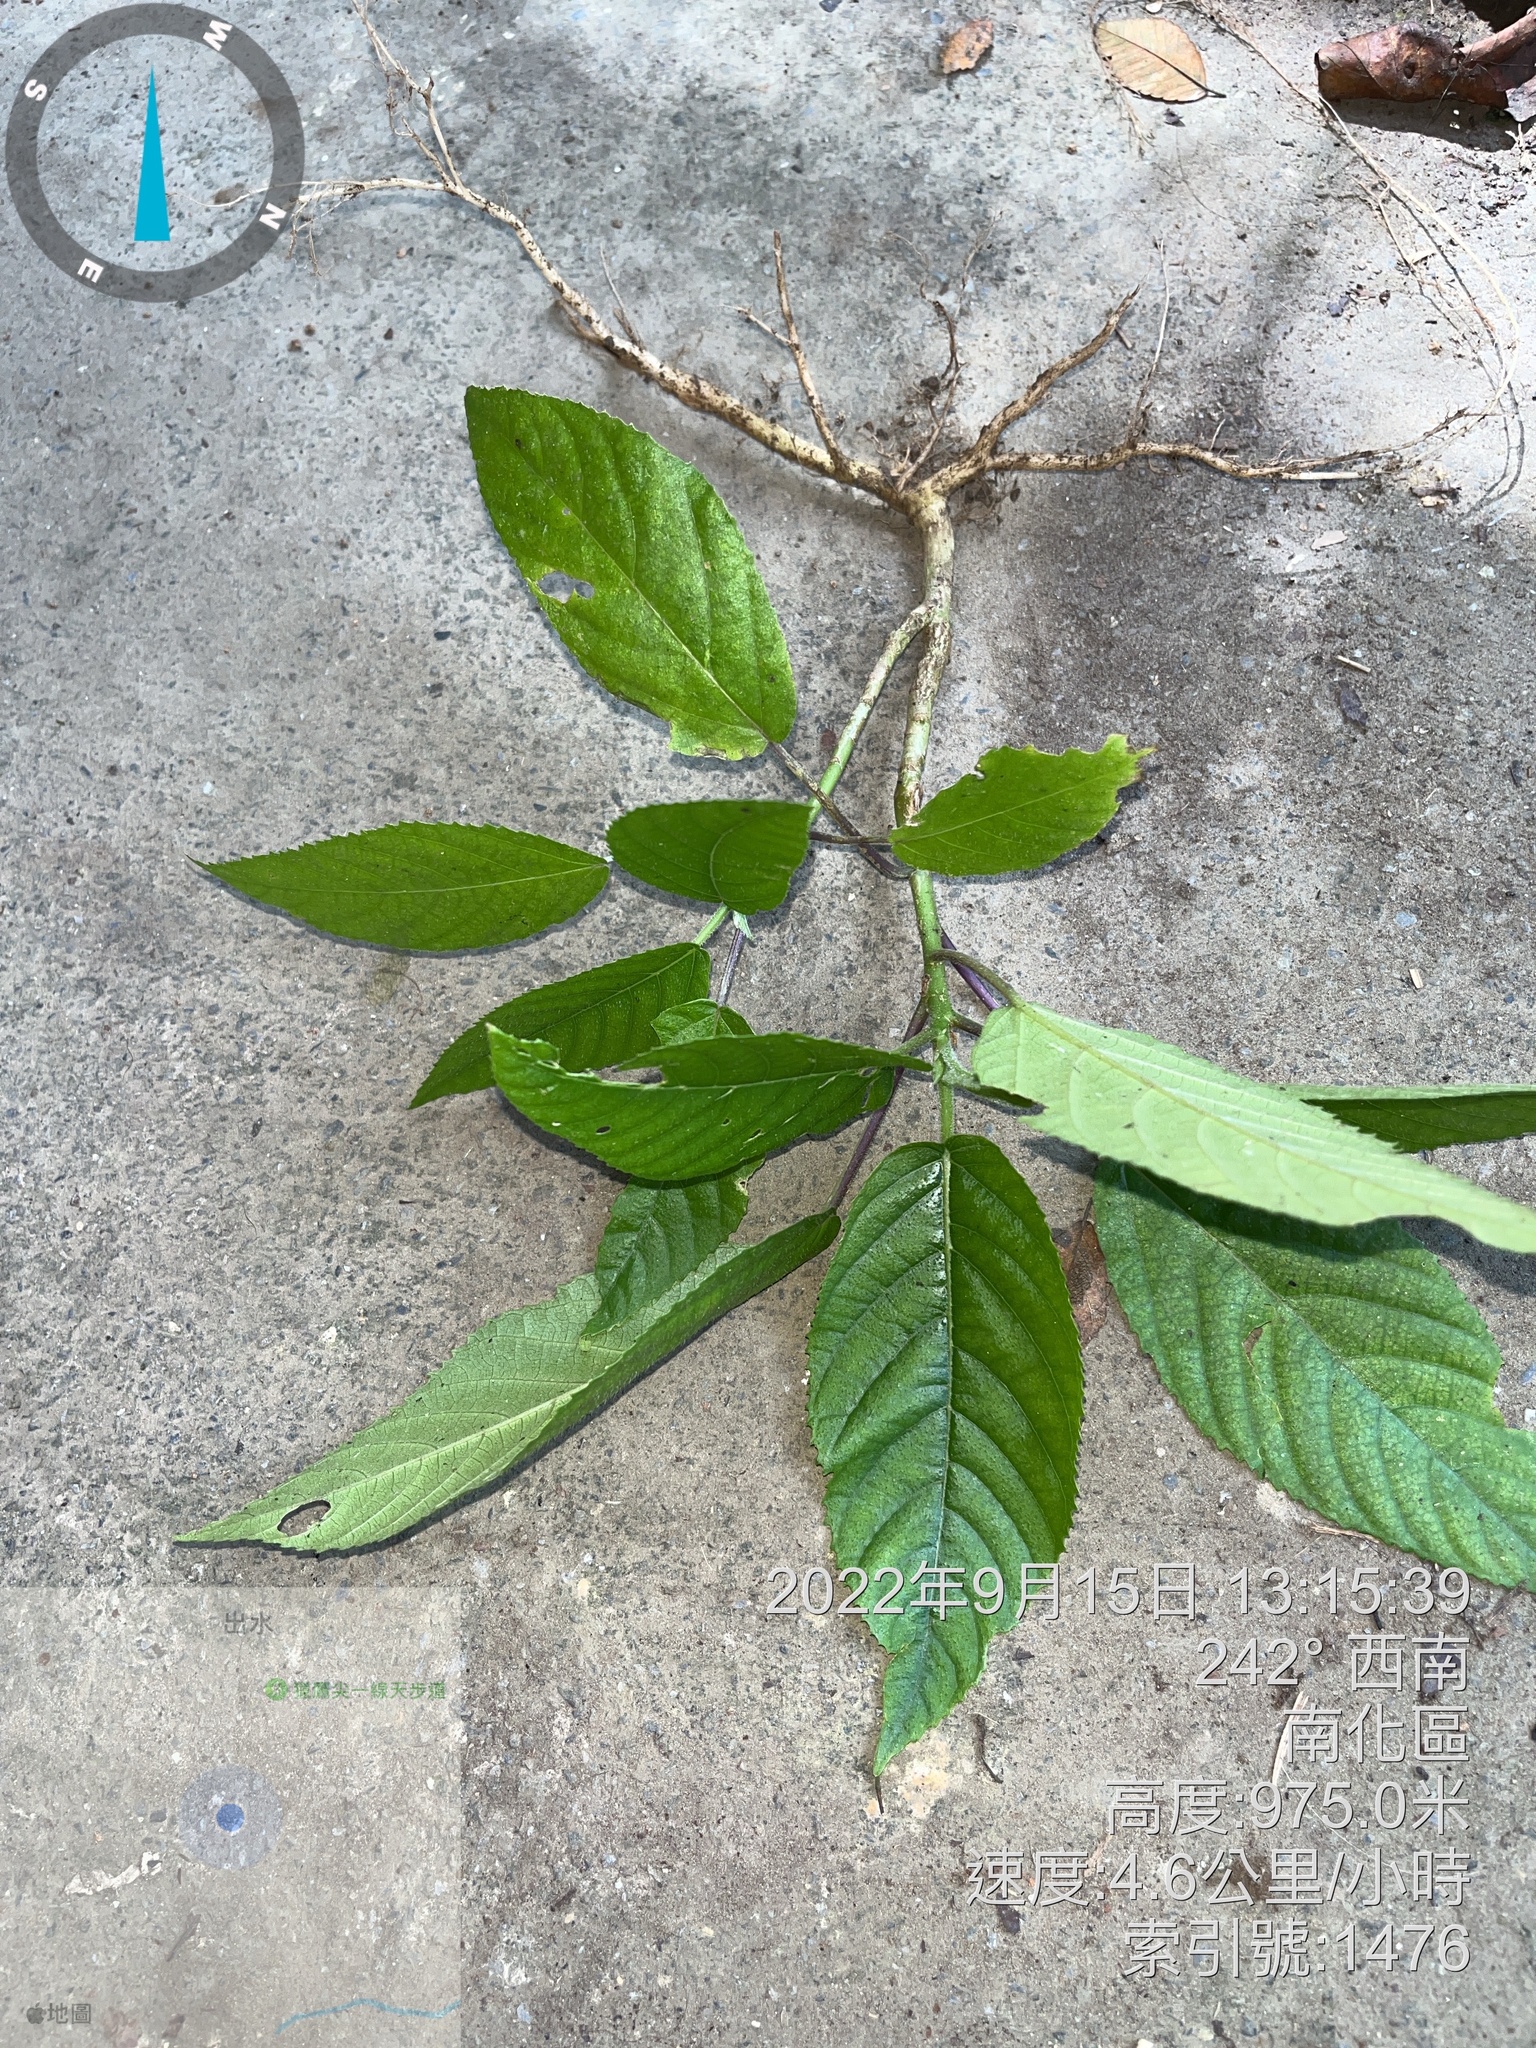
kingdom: Plantae
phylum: Tracheophyta
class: Magnoliopsida
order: Rosales
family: Urticaceae
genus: Dendrocnide
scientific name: Dendrocnide meyeniana
